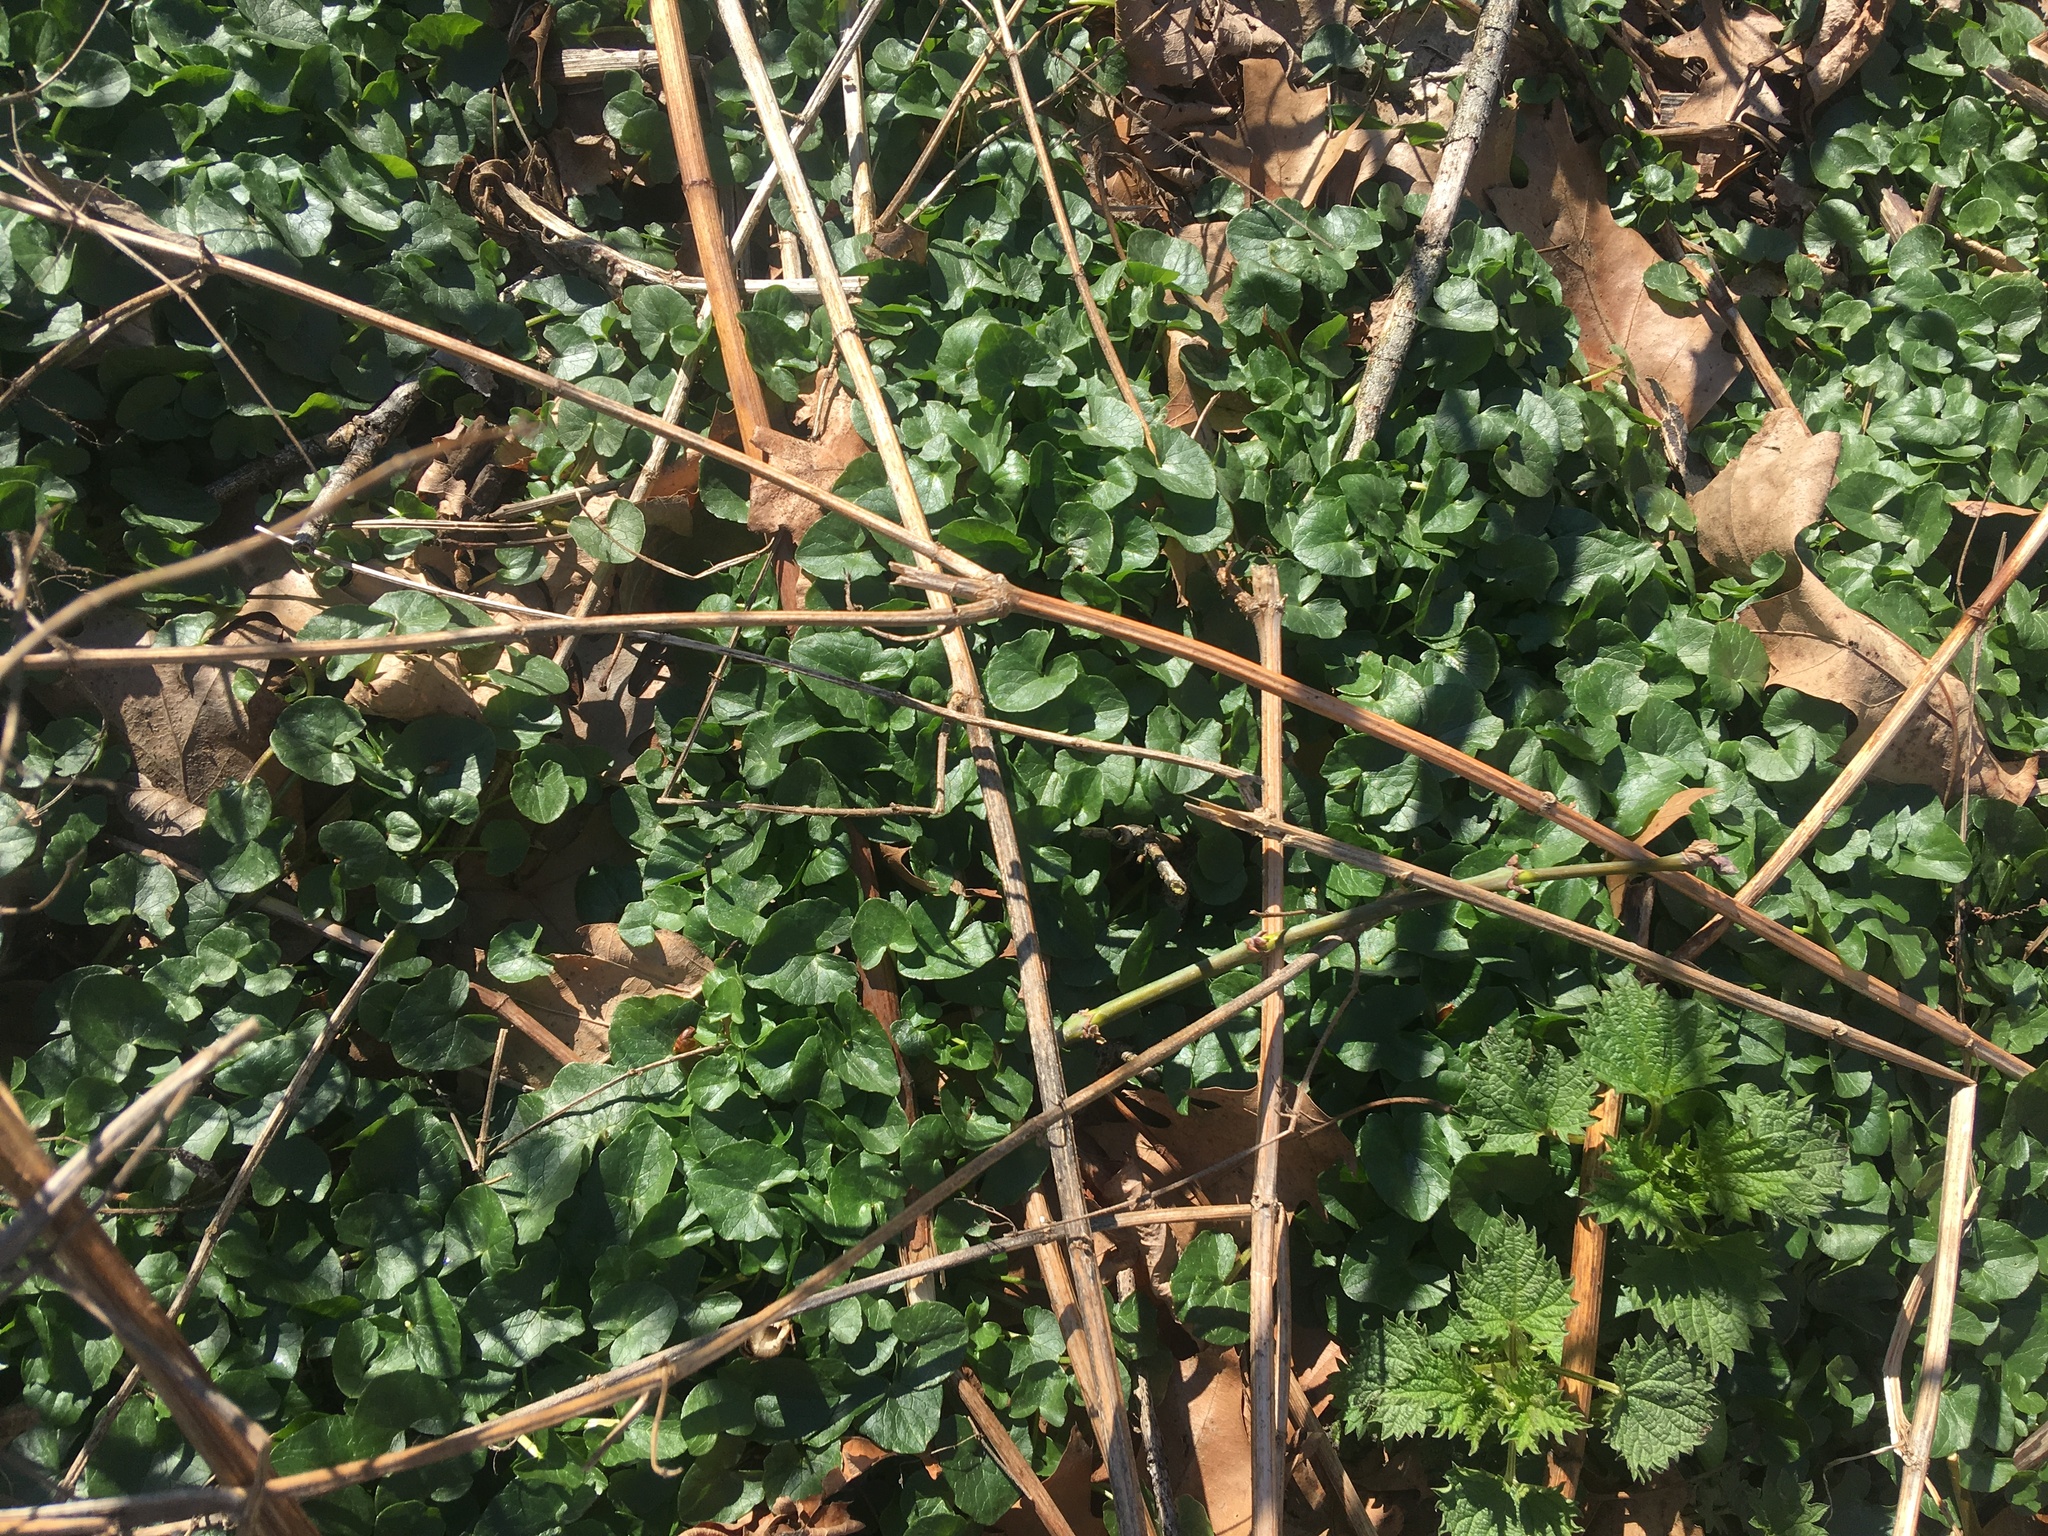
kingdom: Plantae
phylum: Tracheophyta
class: Magnoliopsida
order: Ranunculales
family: Ranunculaceae
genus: Ficaria
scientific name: Ficaria verna
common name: Lesser celandine
